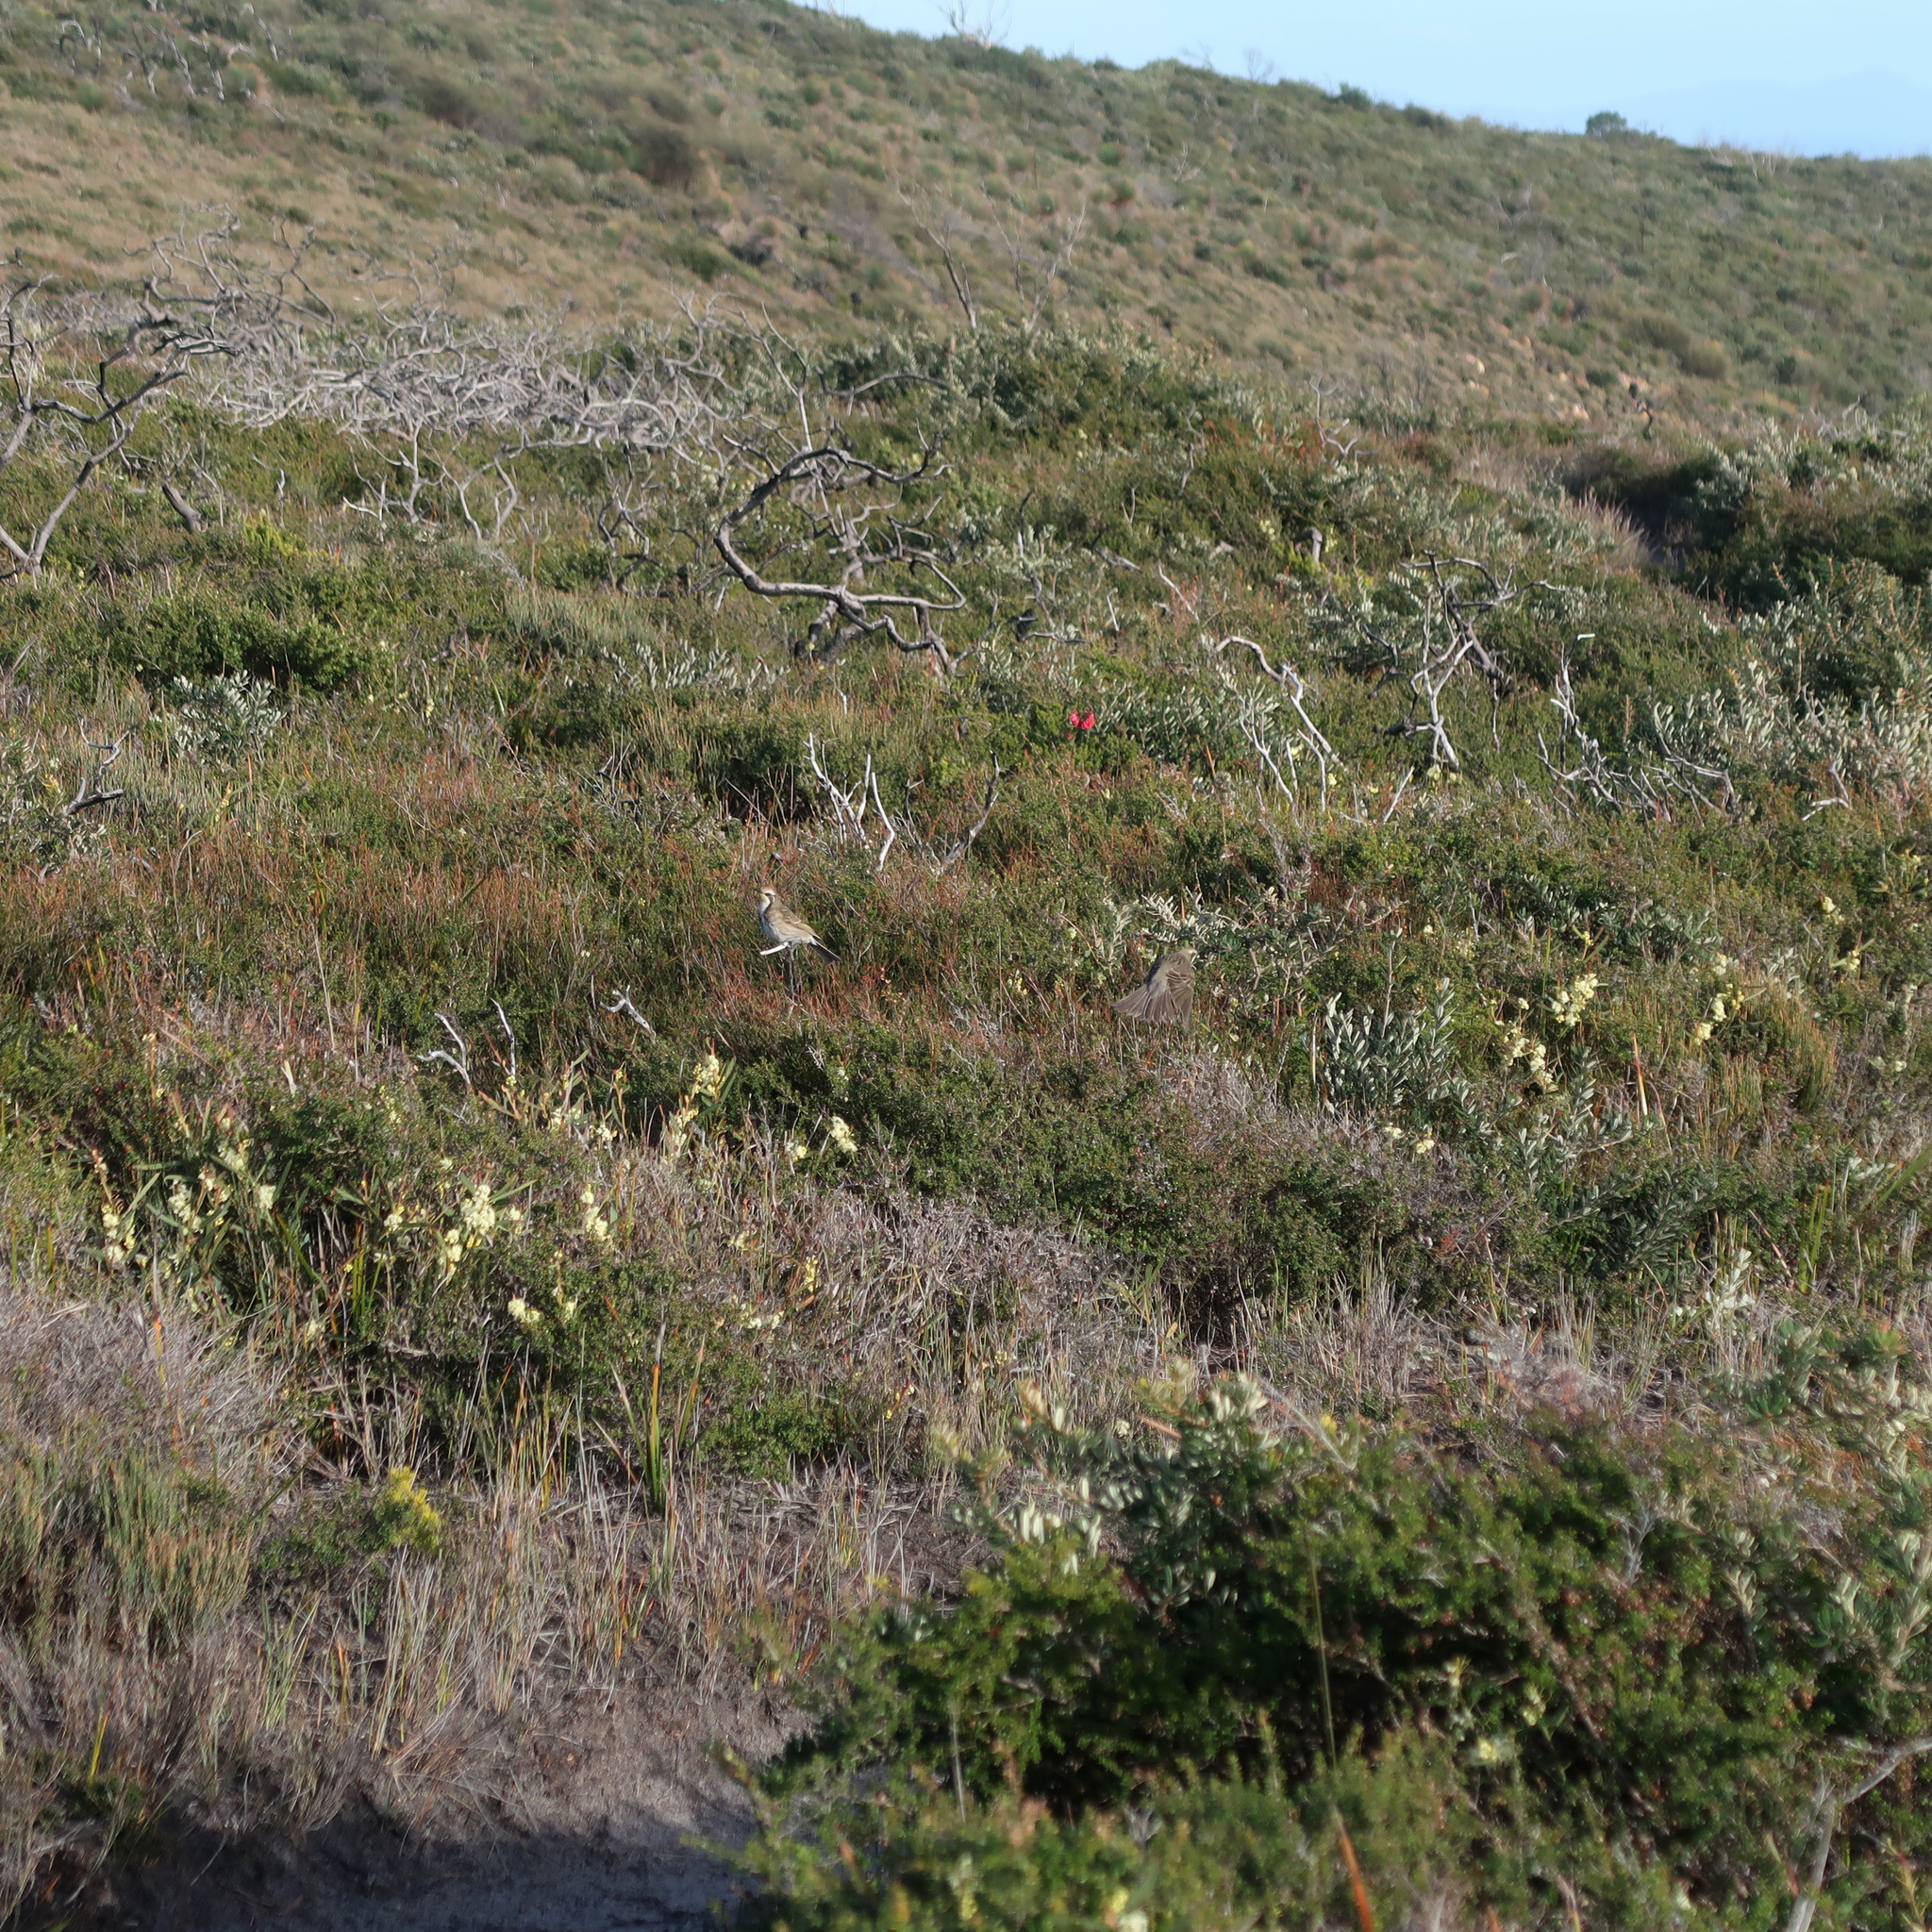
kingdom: Animalia
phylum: Chordata
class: Aves
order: Passeriformes
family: Meliphagidae
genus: Gliciphila
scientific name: Gliciphila melanops
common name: Tawny-crowned honeyeater
